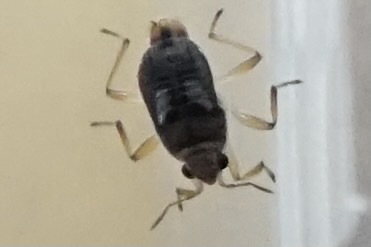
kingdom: Animalia
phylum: Arthropoda
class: Insecta
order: Hemiptera
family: Veliidae
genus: Microvelia
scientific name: Microvelia horvathi
